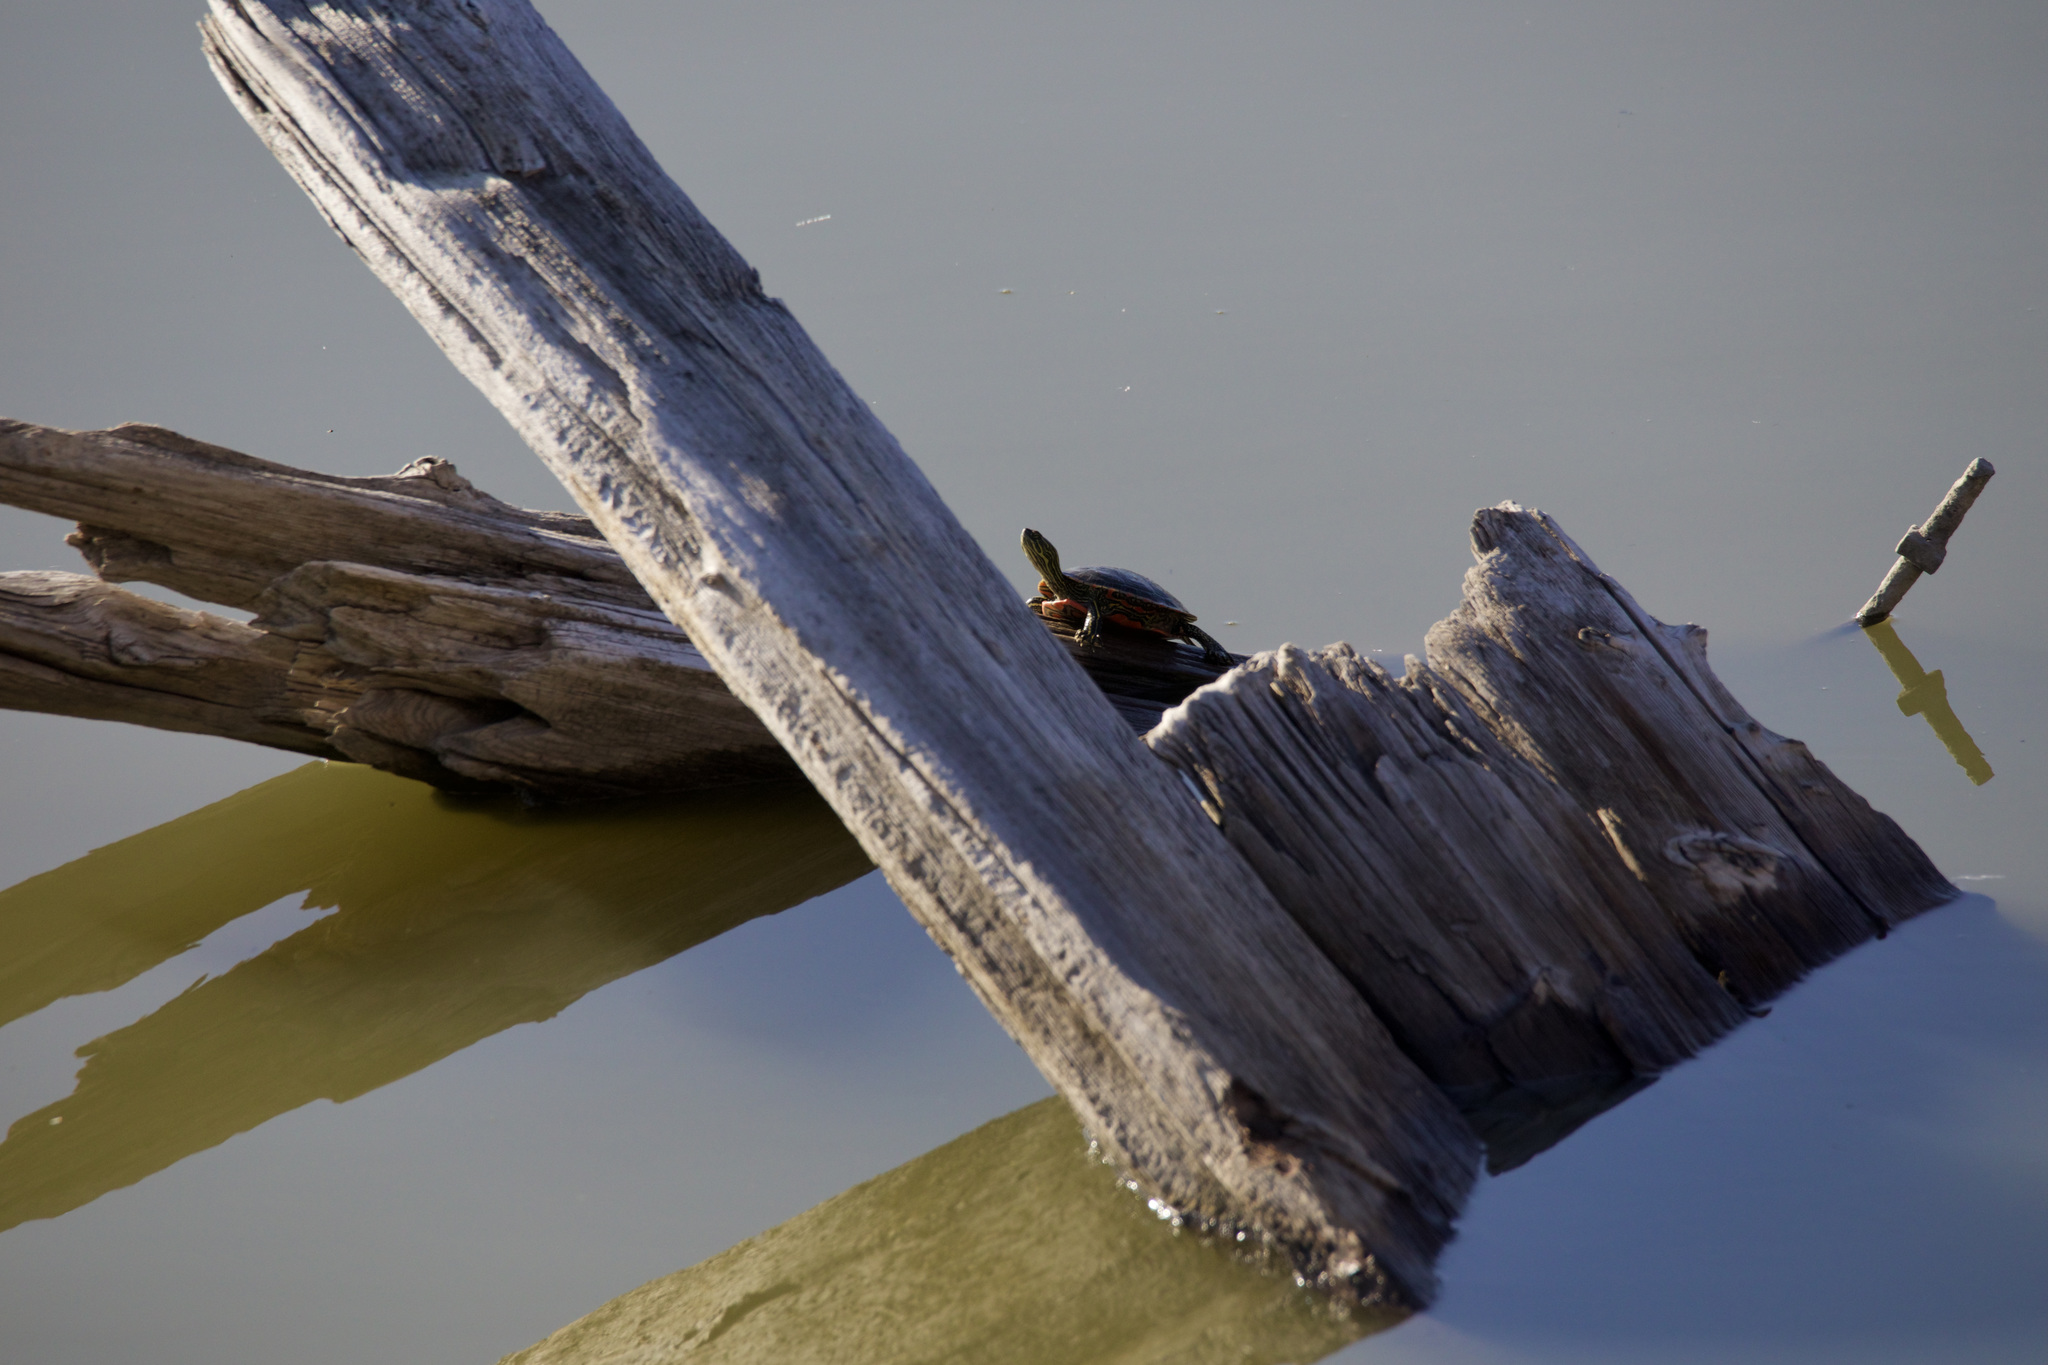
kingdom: Animalia
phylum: Chordata
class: Testudines
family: Emydidae
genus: Chrysemys
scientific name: Chrysemys picta
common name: Painted turtle
